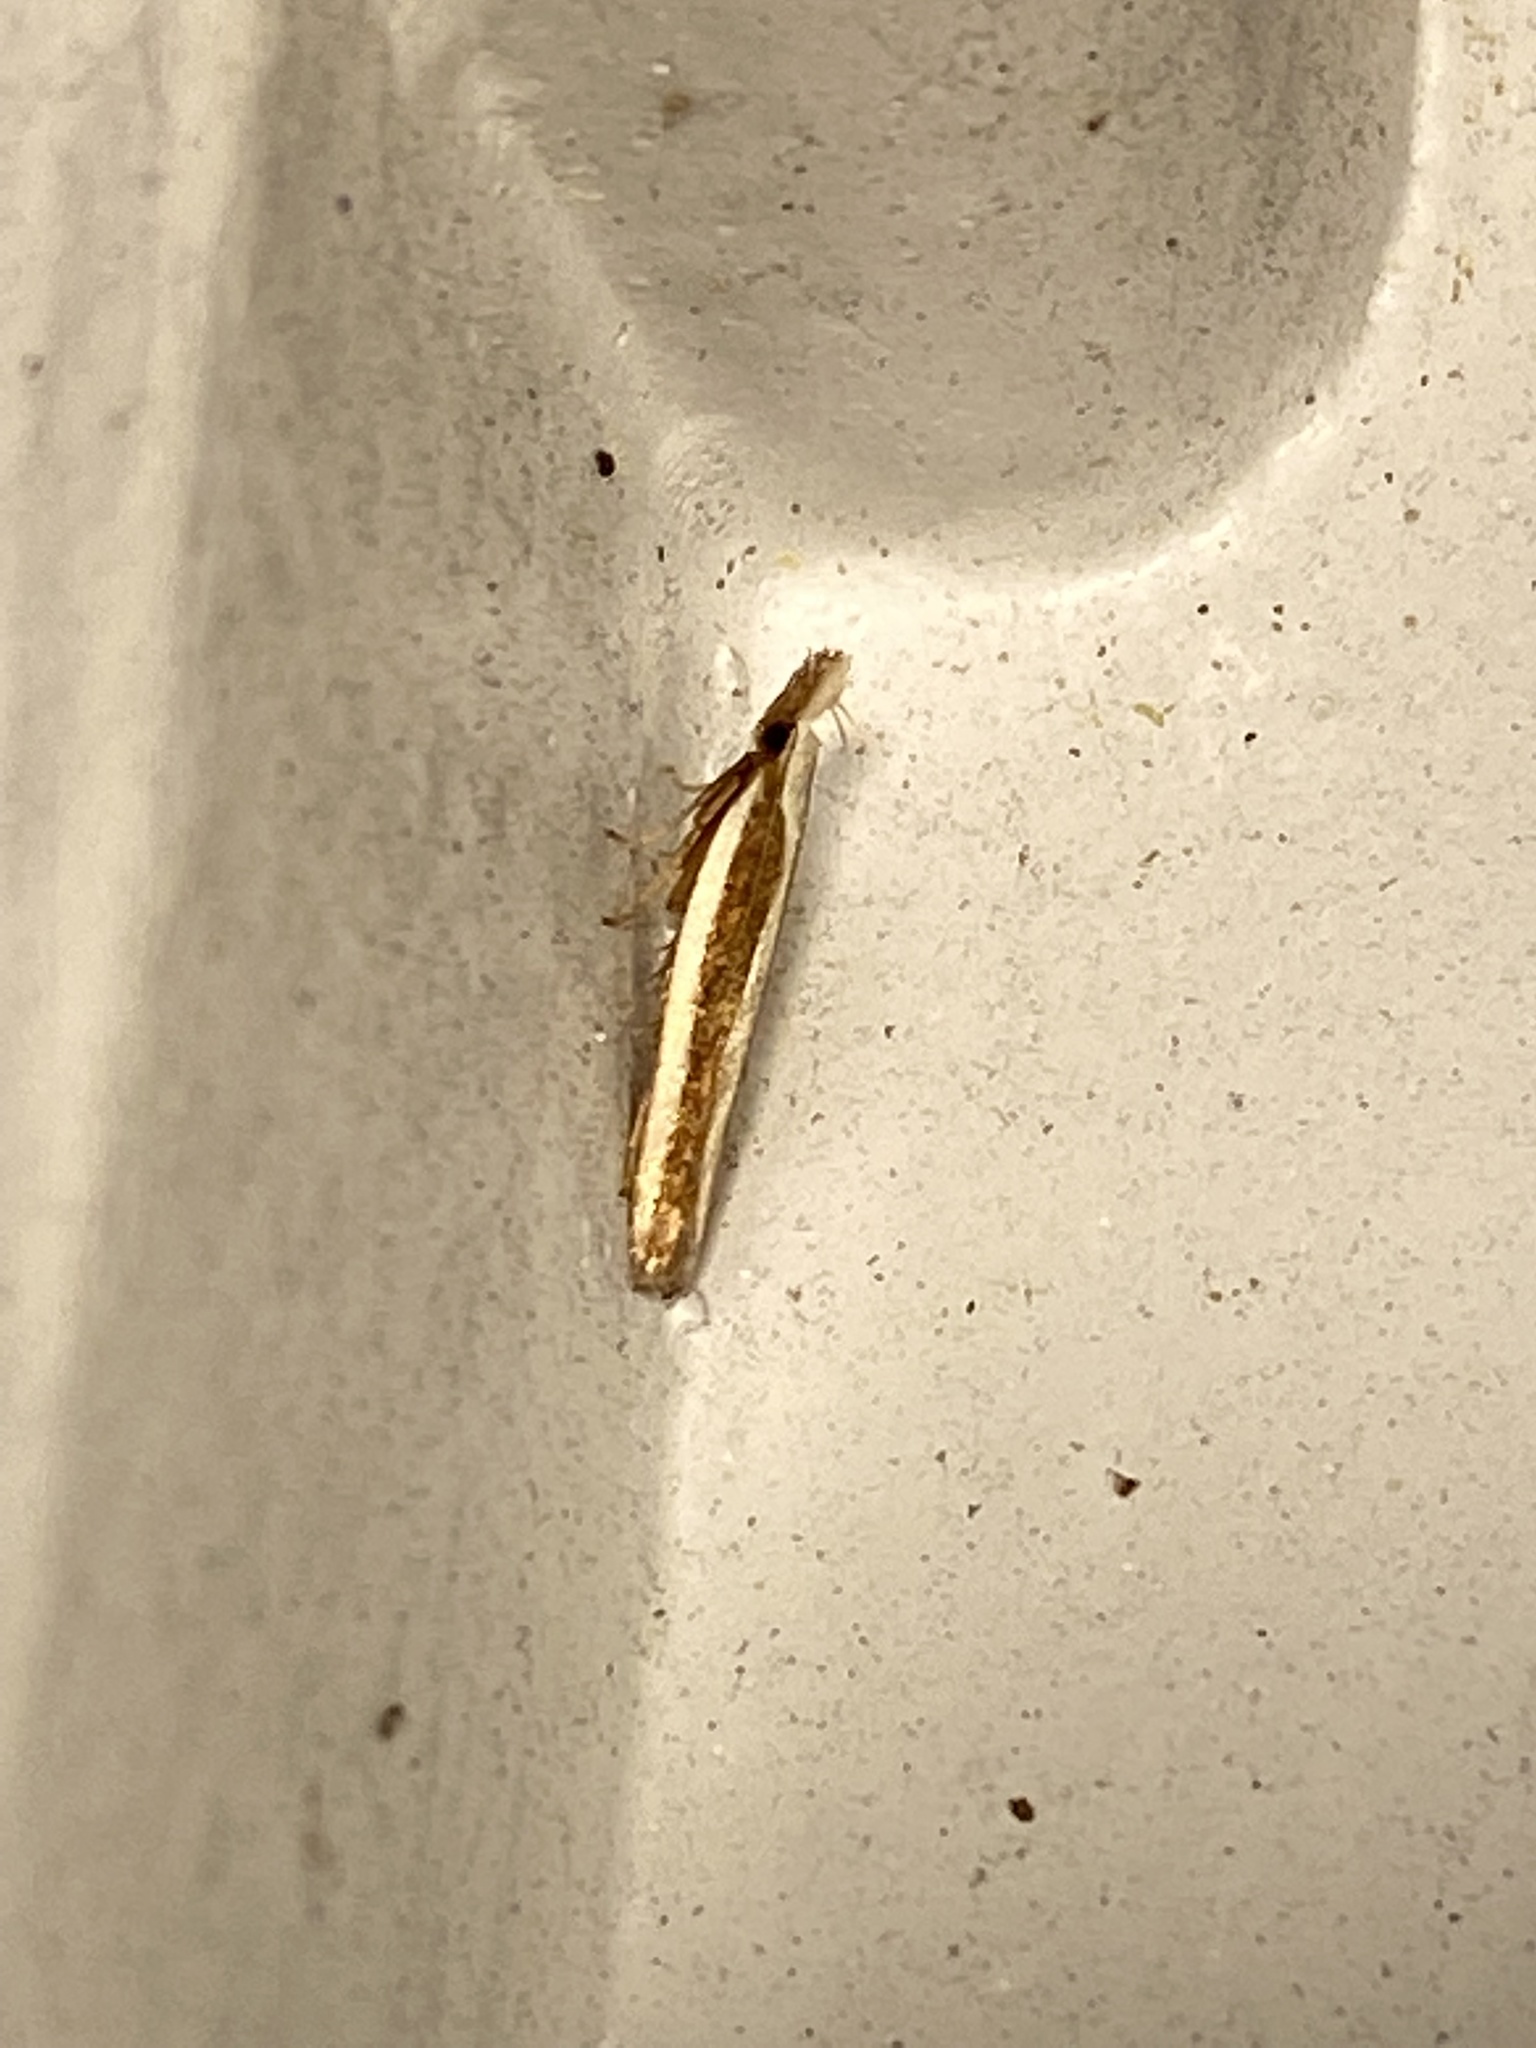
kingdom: Animalia
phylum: Arthropoda
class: Insecta
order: Lepidoptera
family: Gelechiidae
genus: Dichomeris
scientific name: Dichomeris marginella
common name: Juniper webworm
